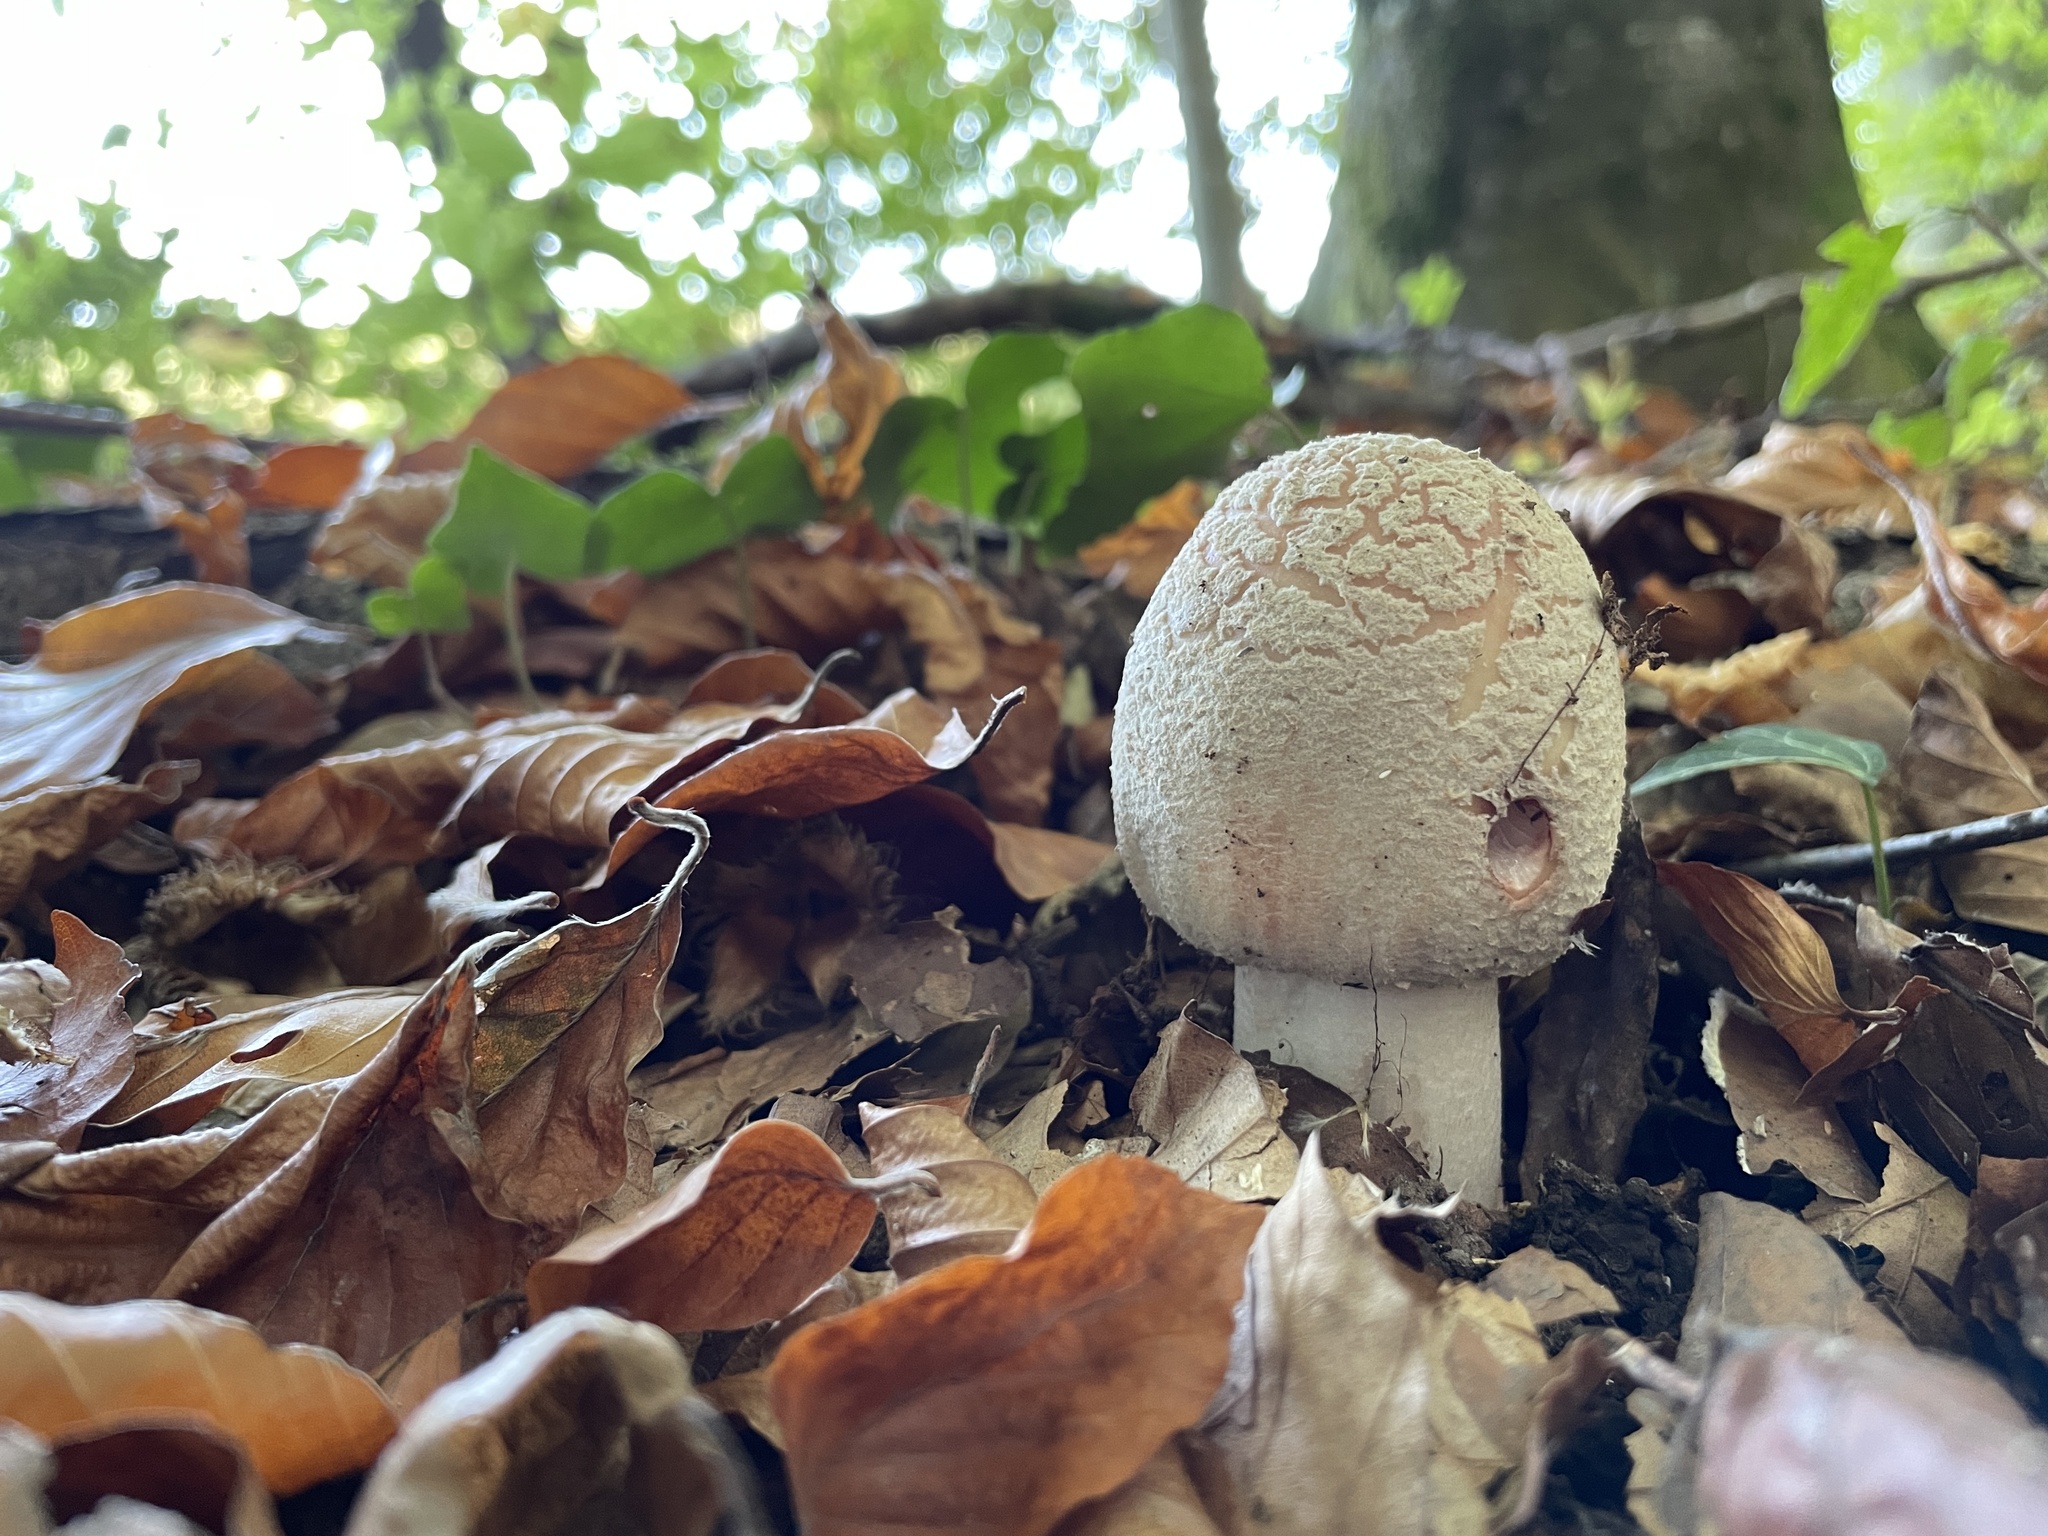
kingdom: Fungi
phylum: Basidiomycota
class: Agaricomycetes
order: Agaricales
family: Amanitaceae
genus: Amanita
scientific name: Amanita rubescens
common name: Blusher
